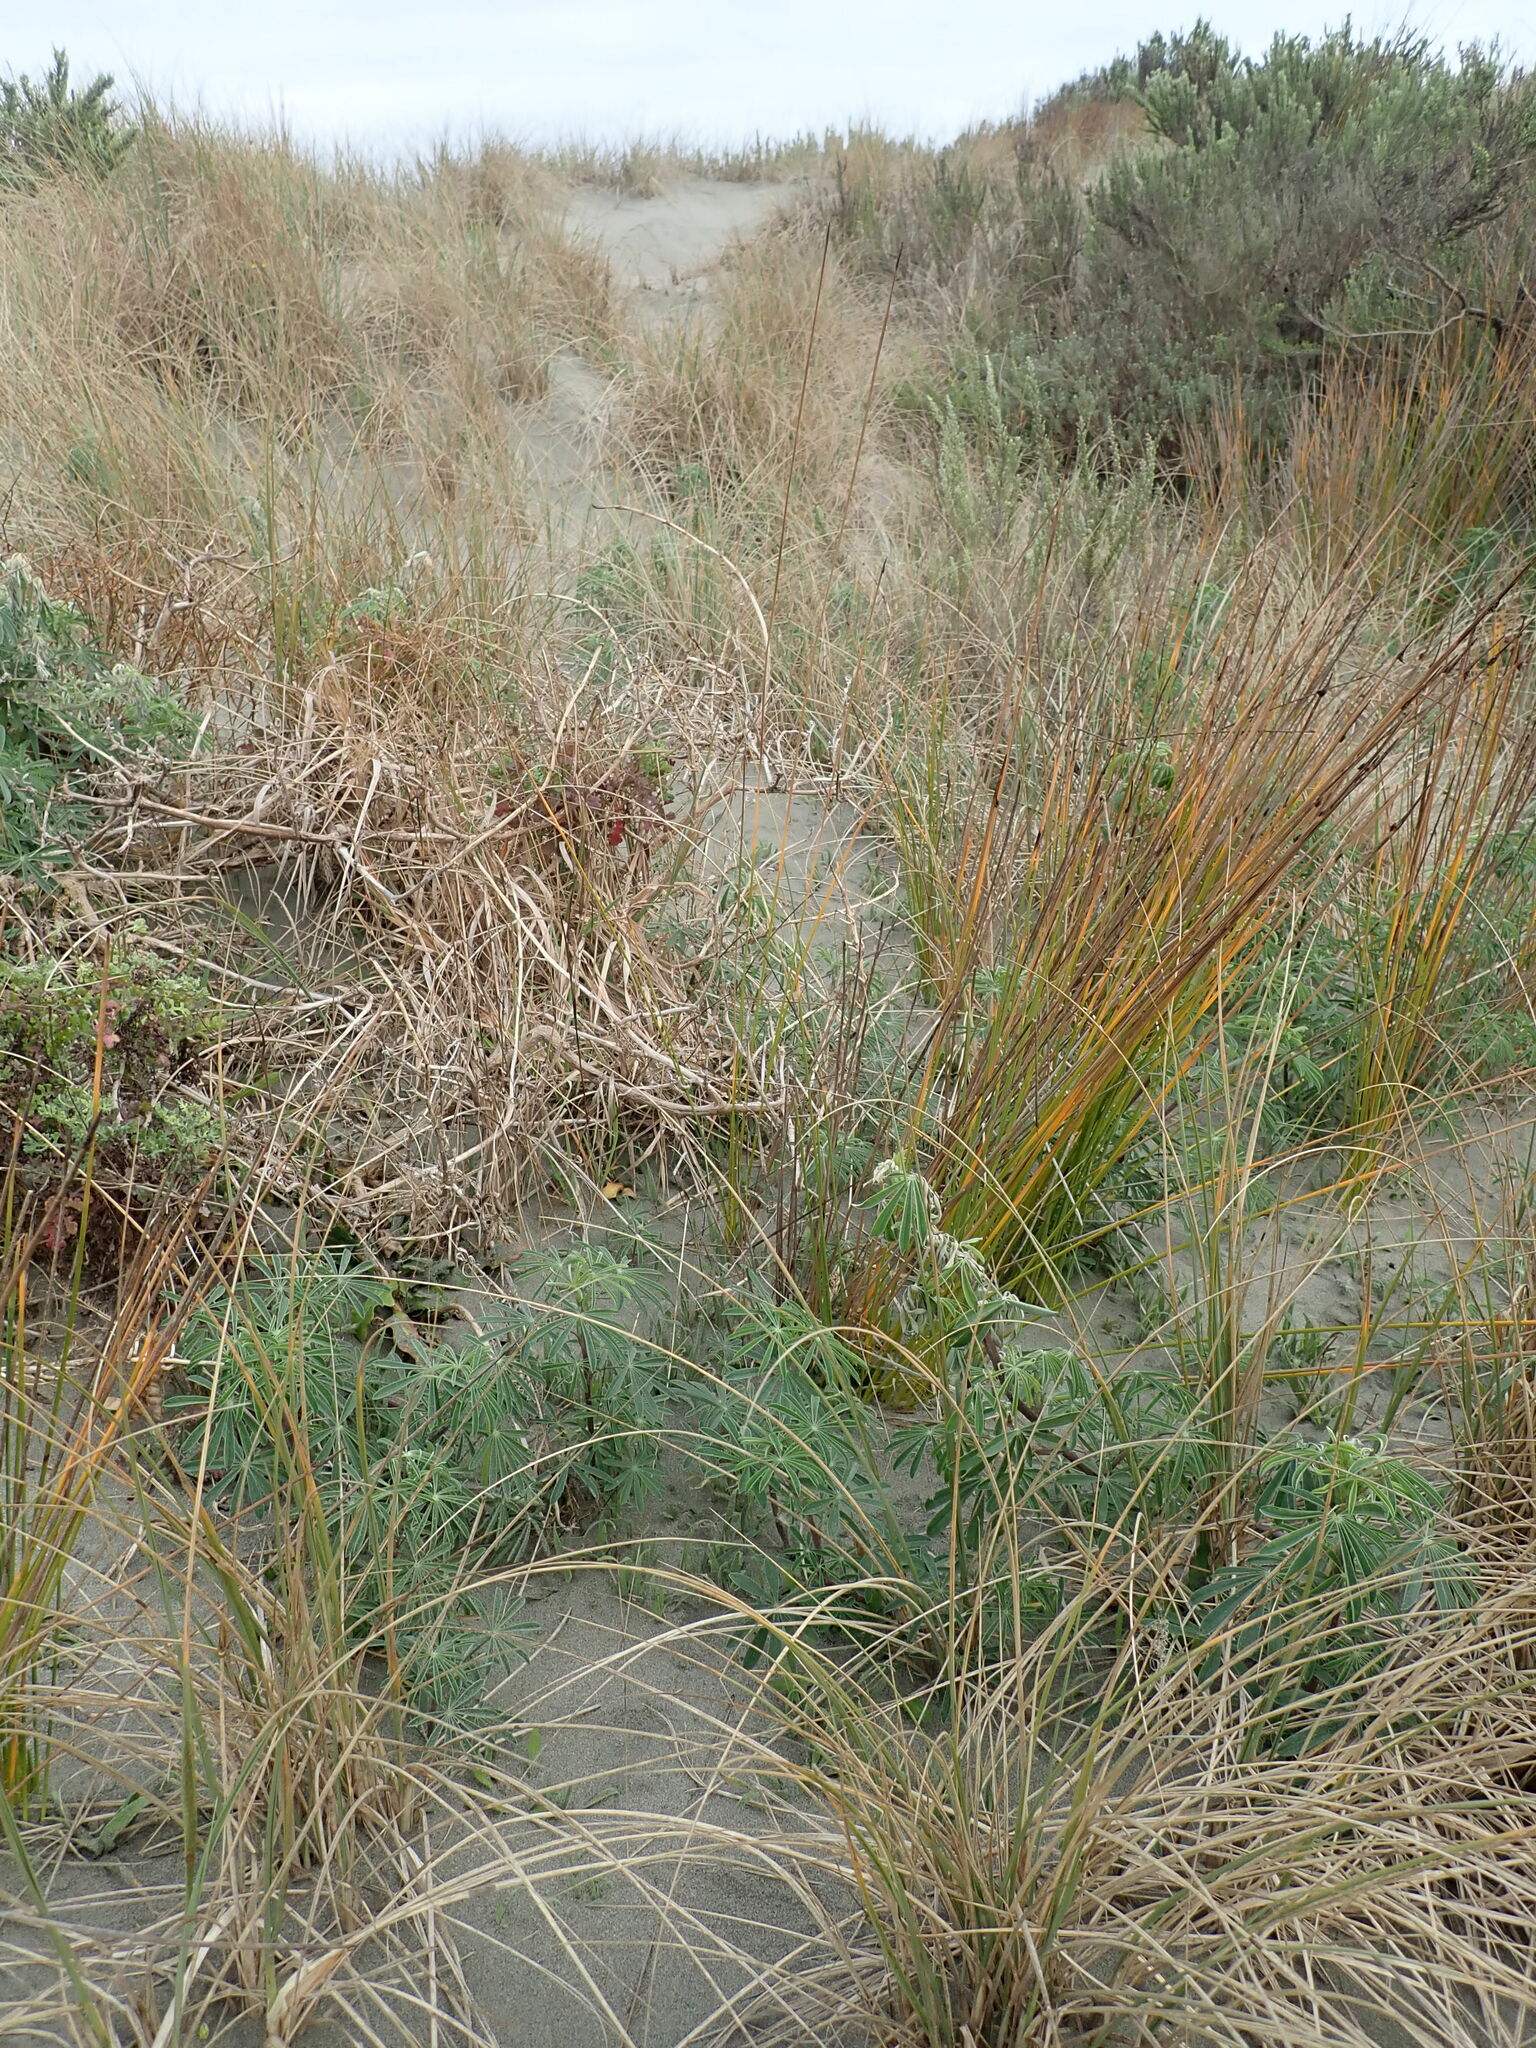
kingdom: Plantae
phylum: Tracheophyta
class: Magnoliopsida
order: Fabales
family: Fabaceae
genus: Lupinus
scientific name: Lupinus arboreus
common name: Yellow bush lupine
